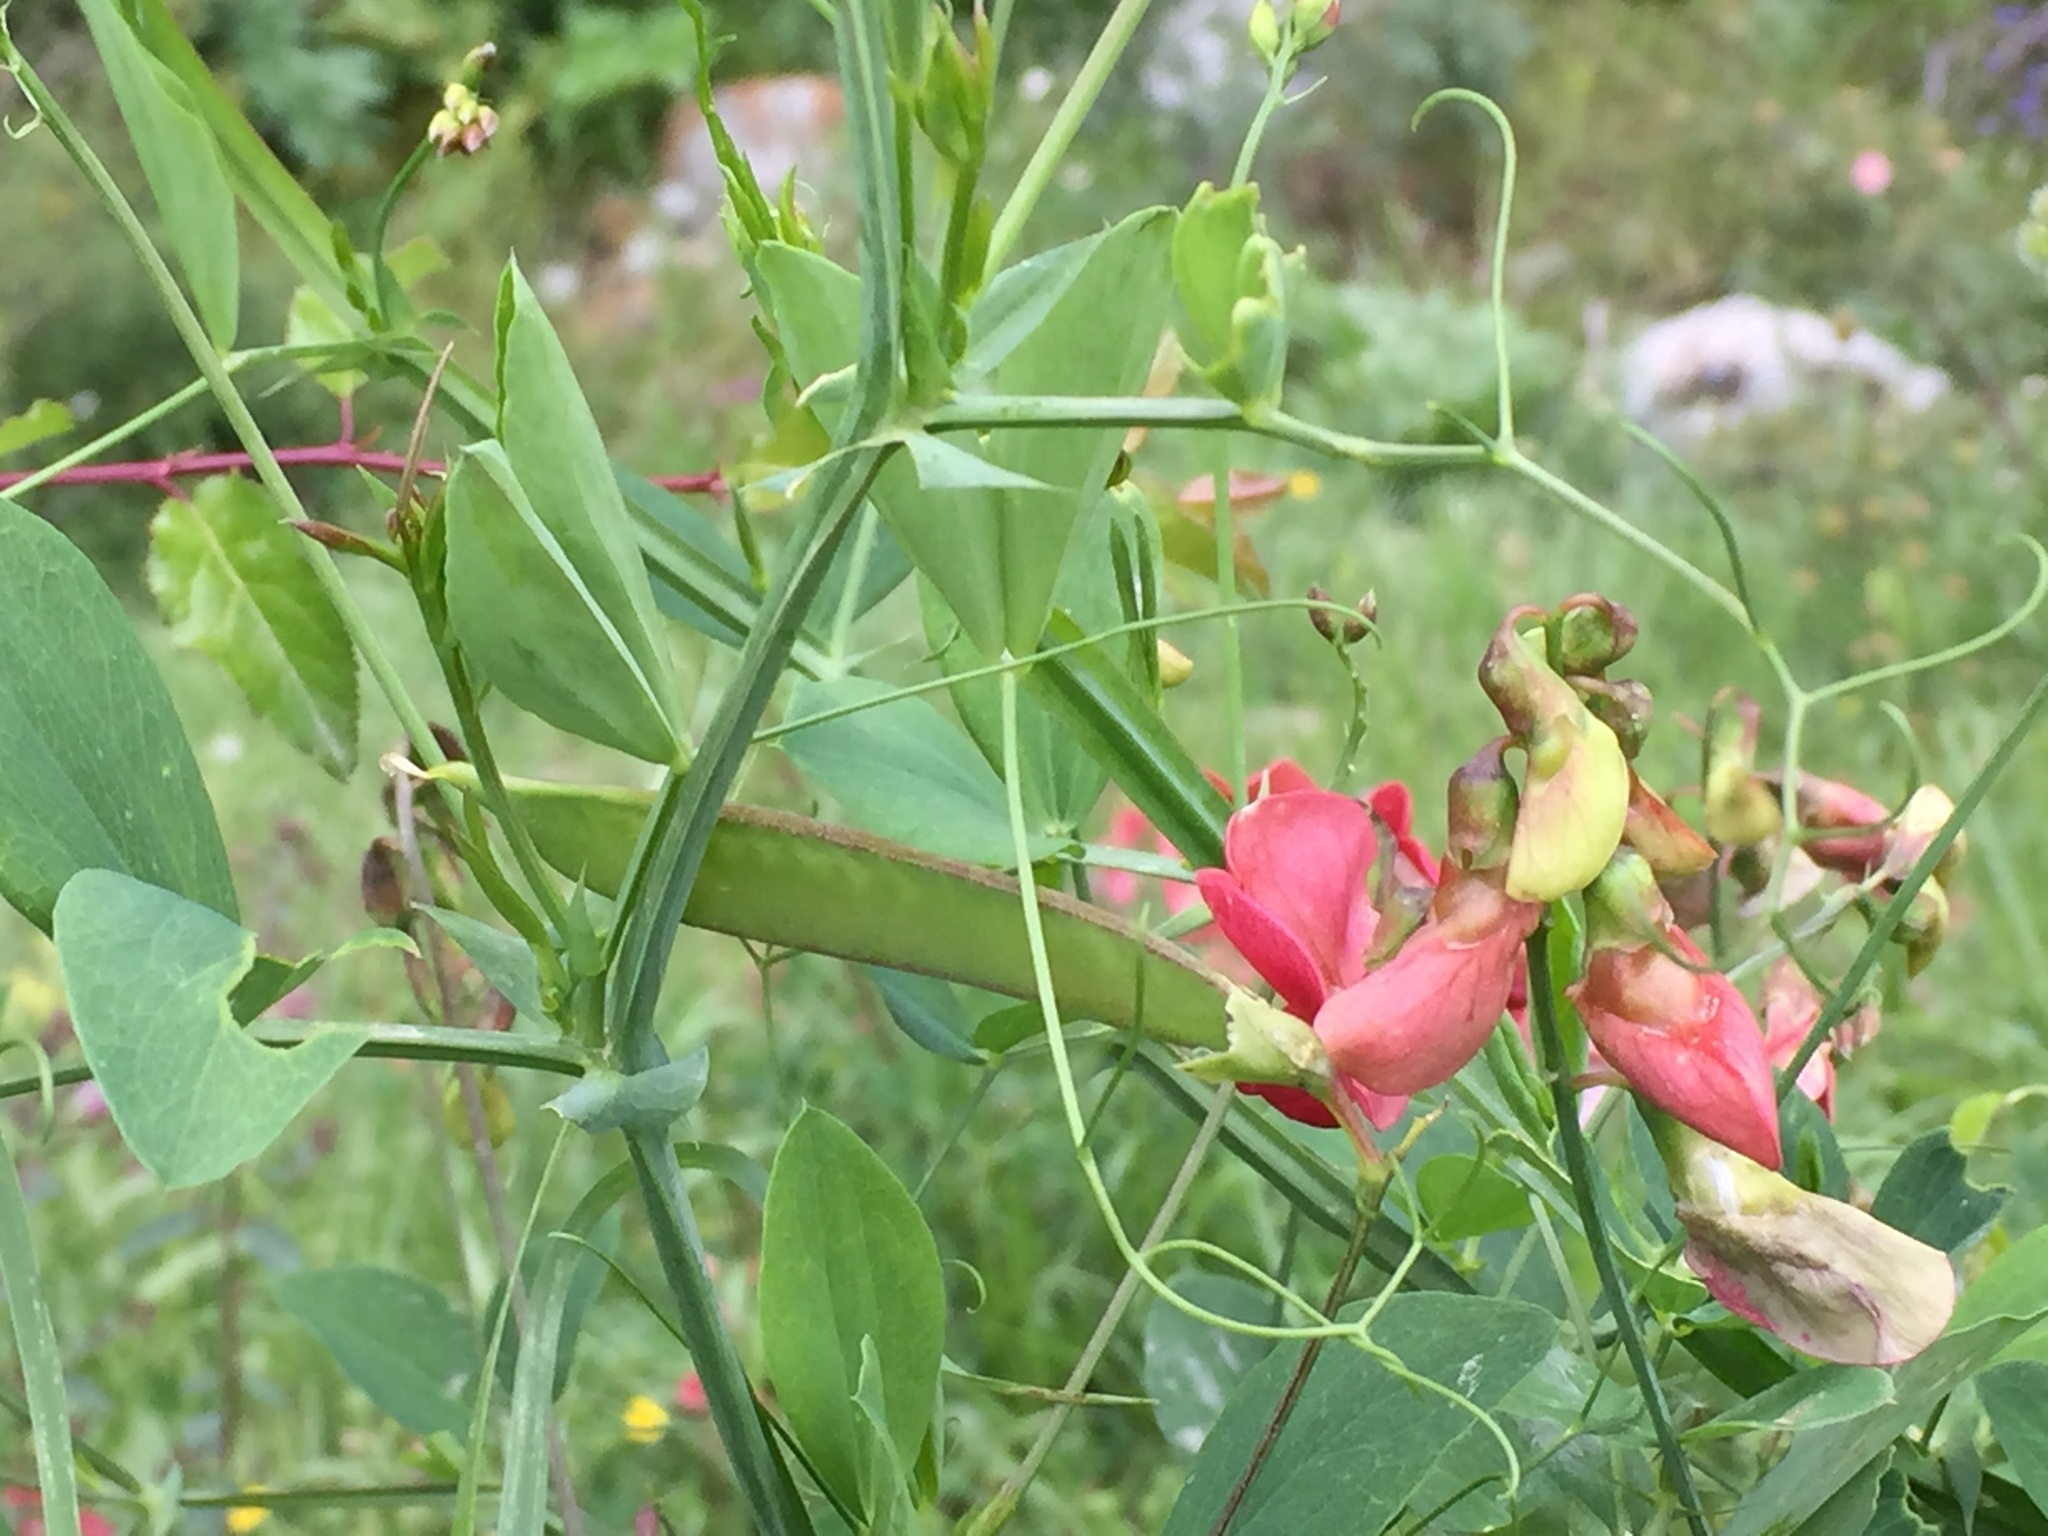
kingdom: Plantae
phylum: Tracheophyta
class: Magnoliopsida
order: Fabales
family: Fabaceae
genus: Lathyrus
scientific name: Lathyrus miniatus
